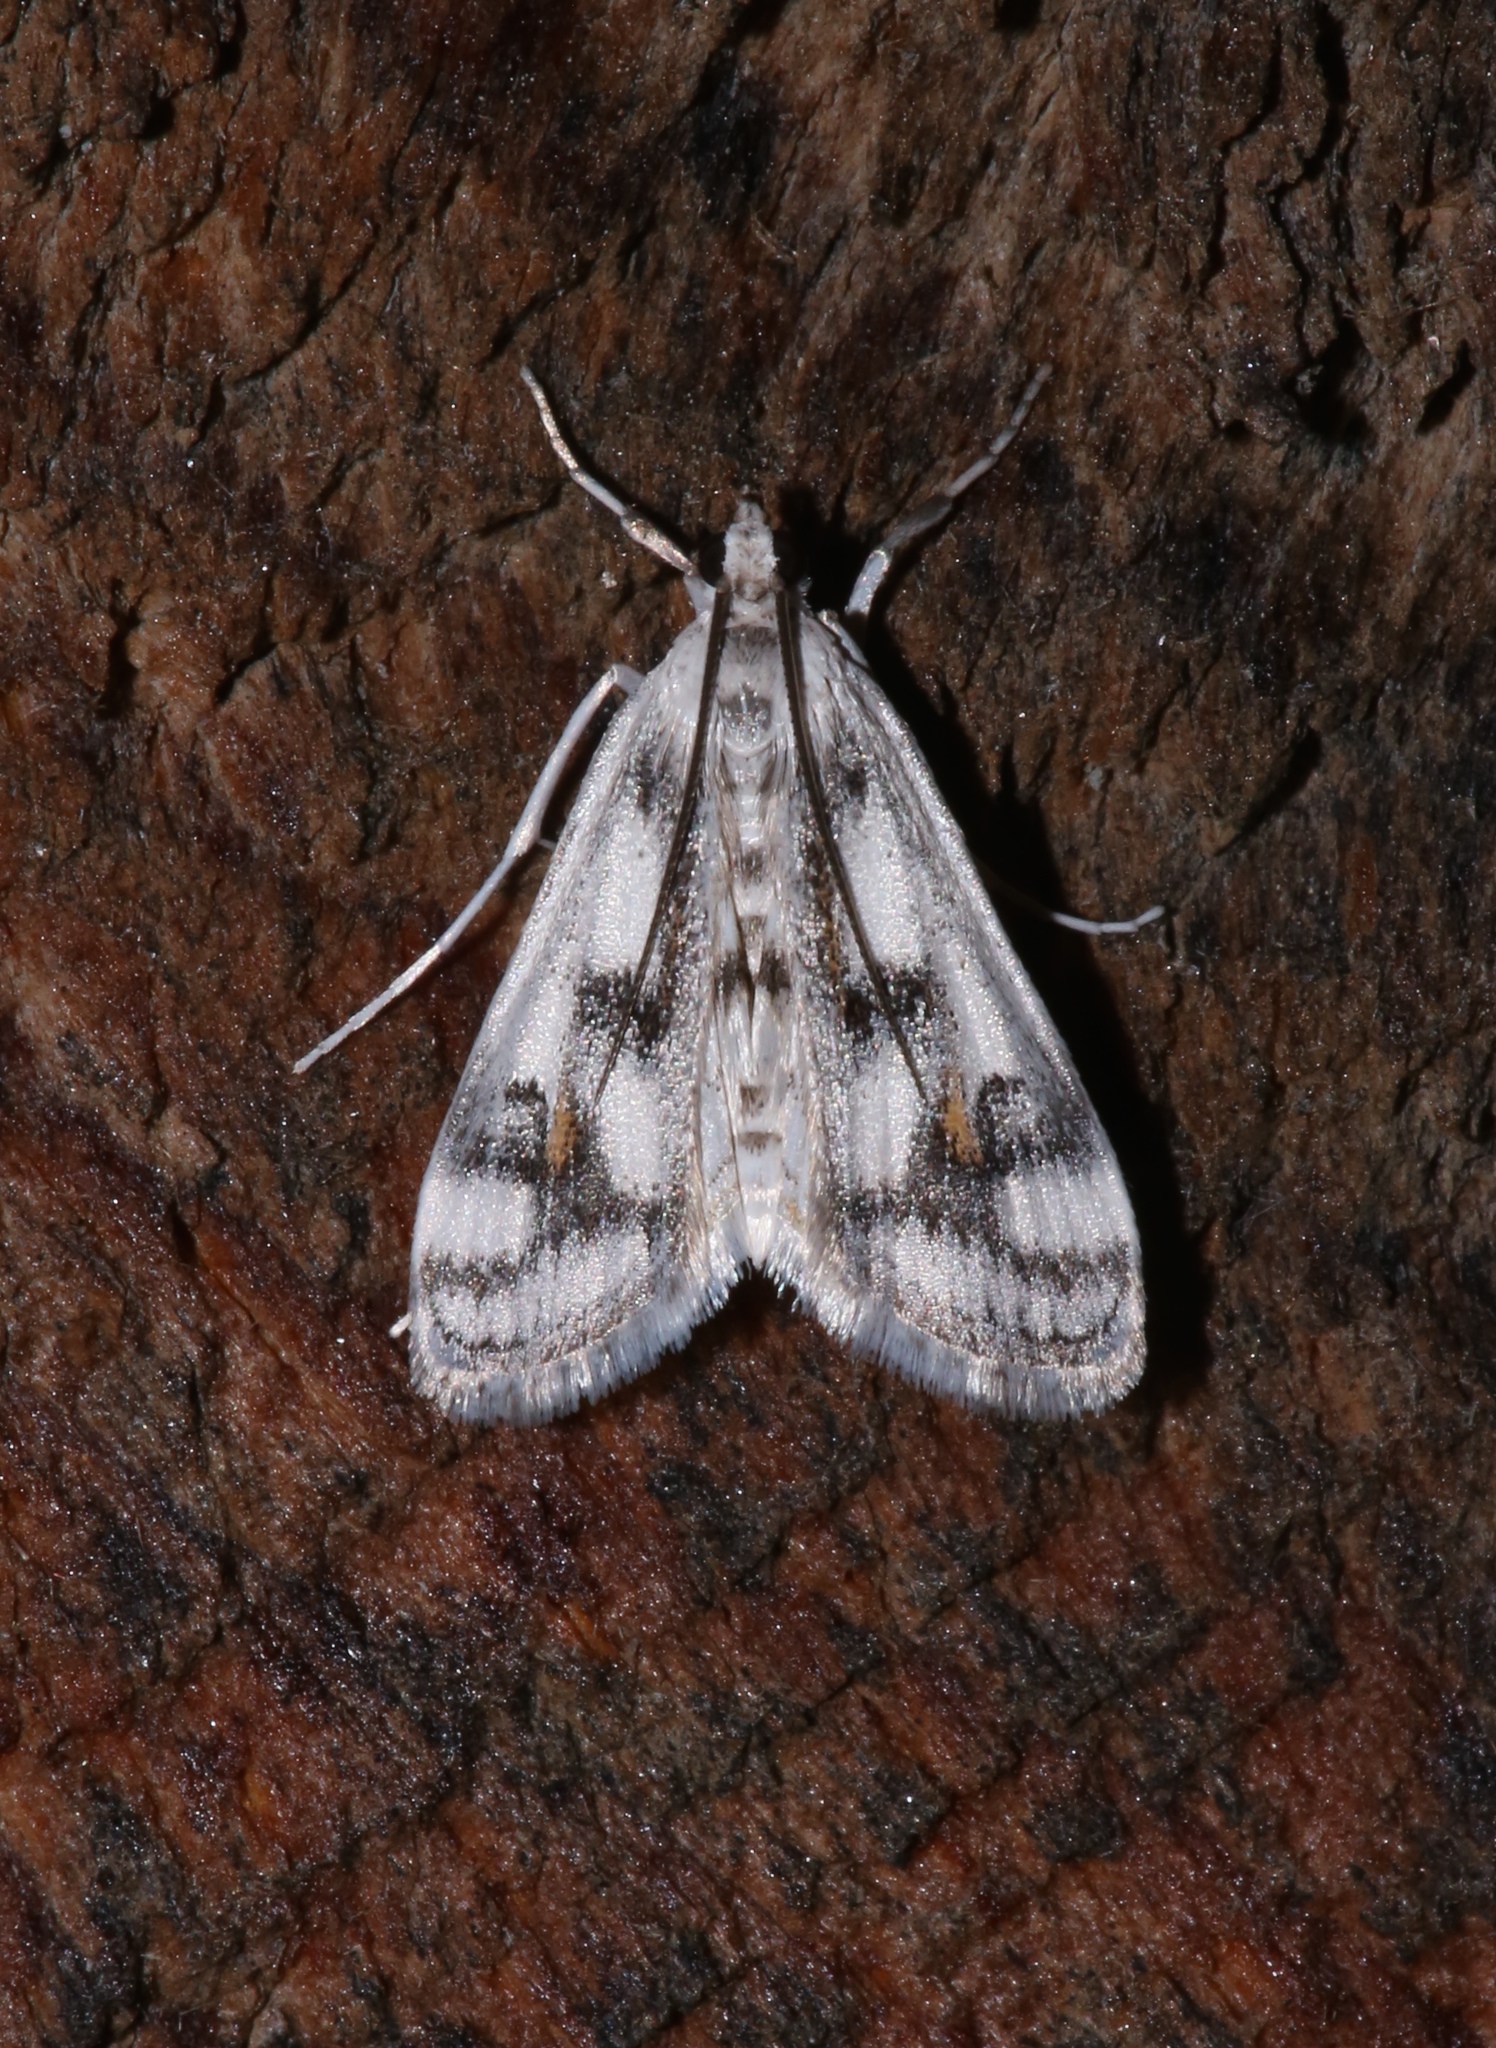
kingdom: Animalia
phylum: Arthropoda
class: Insecta
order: Lepidoptera
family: Crambidae
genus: Parapoynx
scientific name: Parapoynx maculalis
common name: Polymorphic pondweed moth
